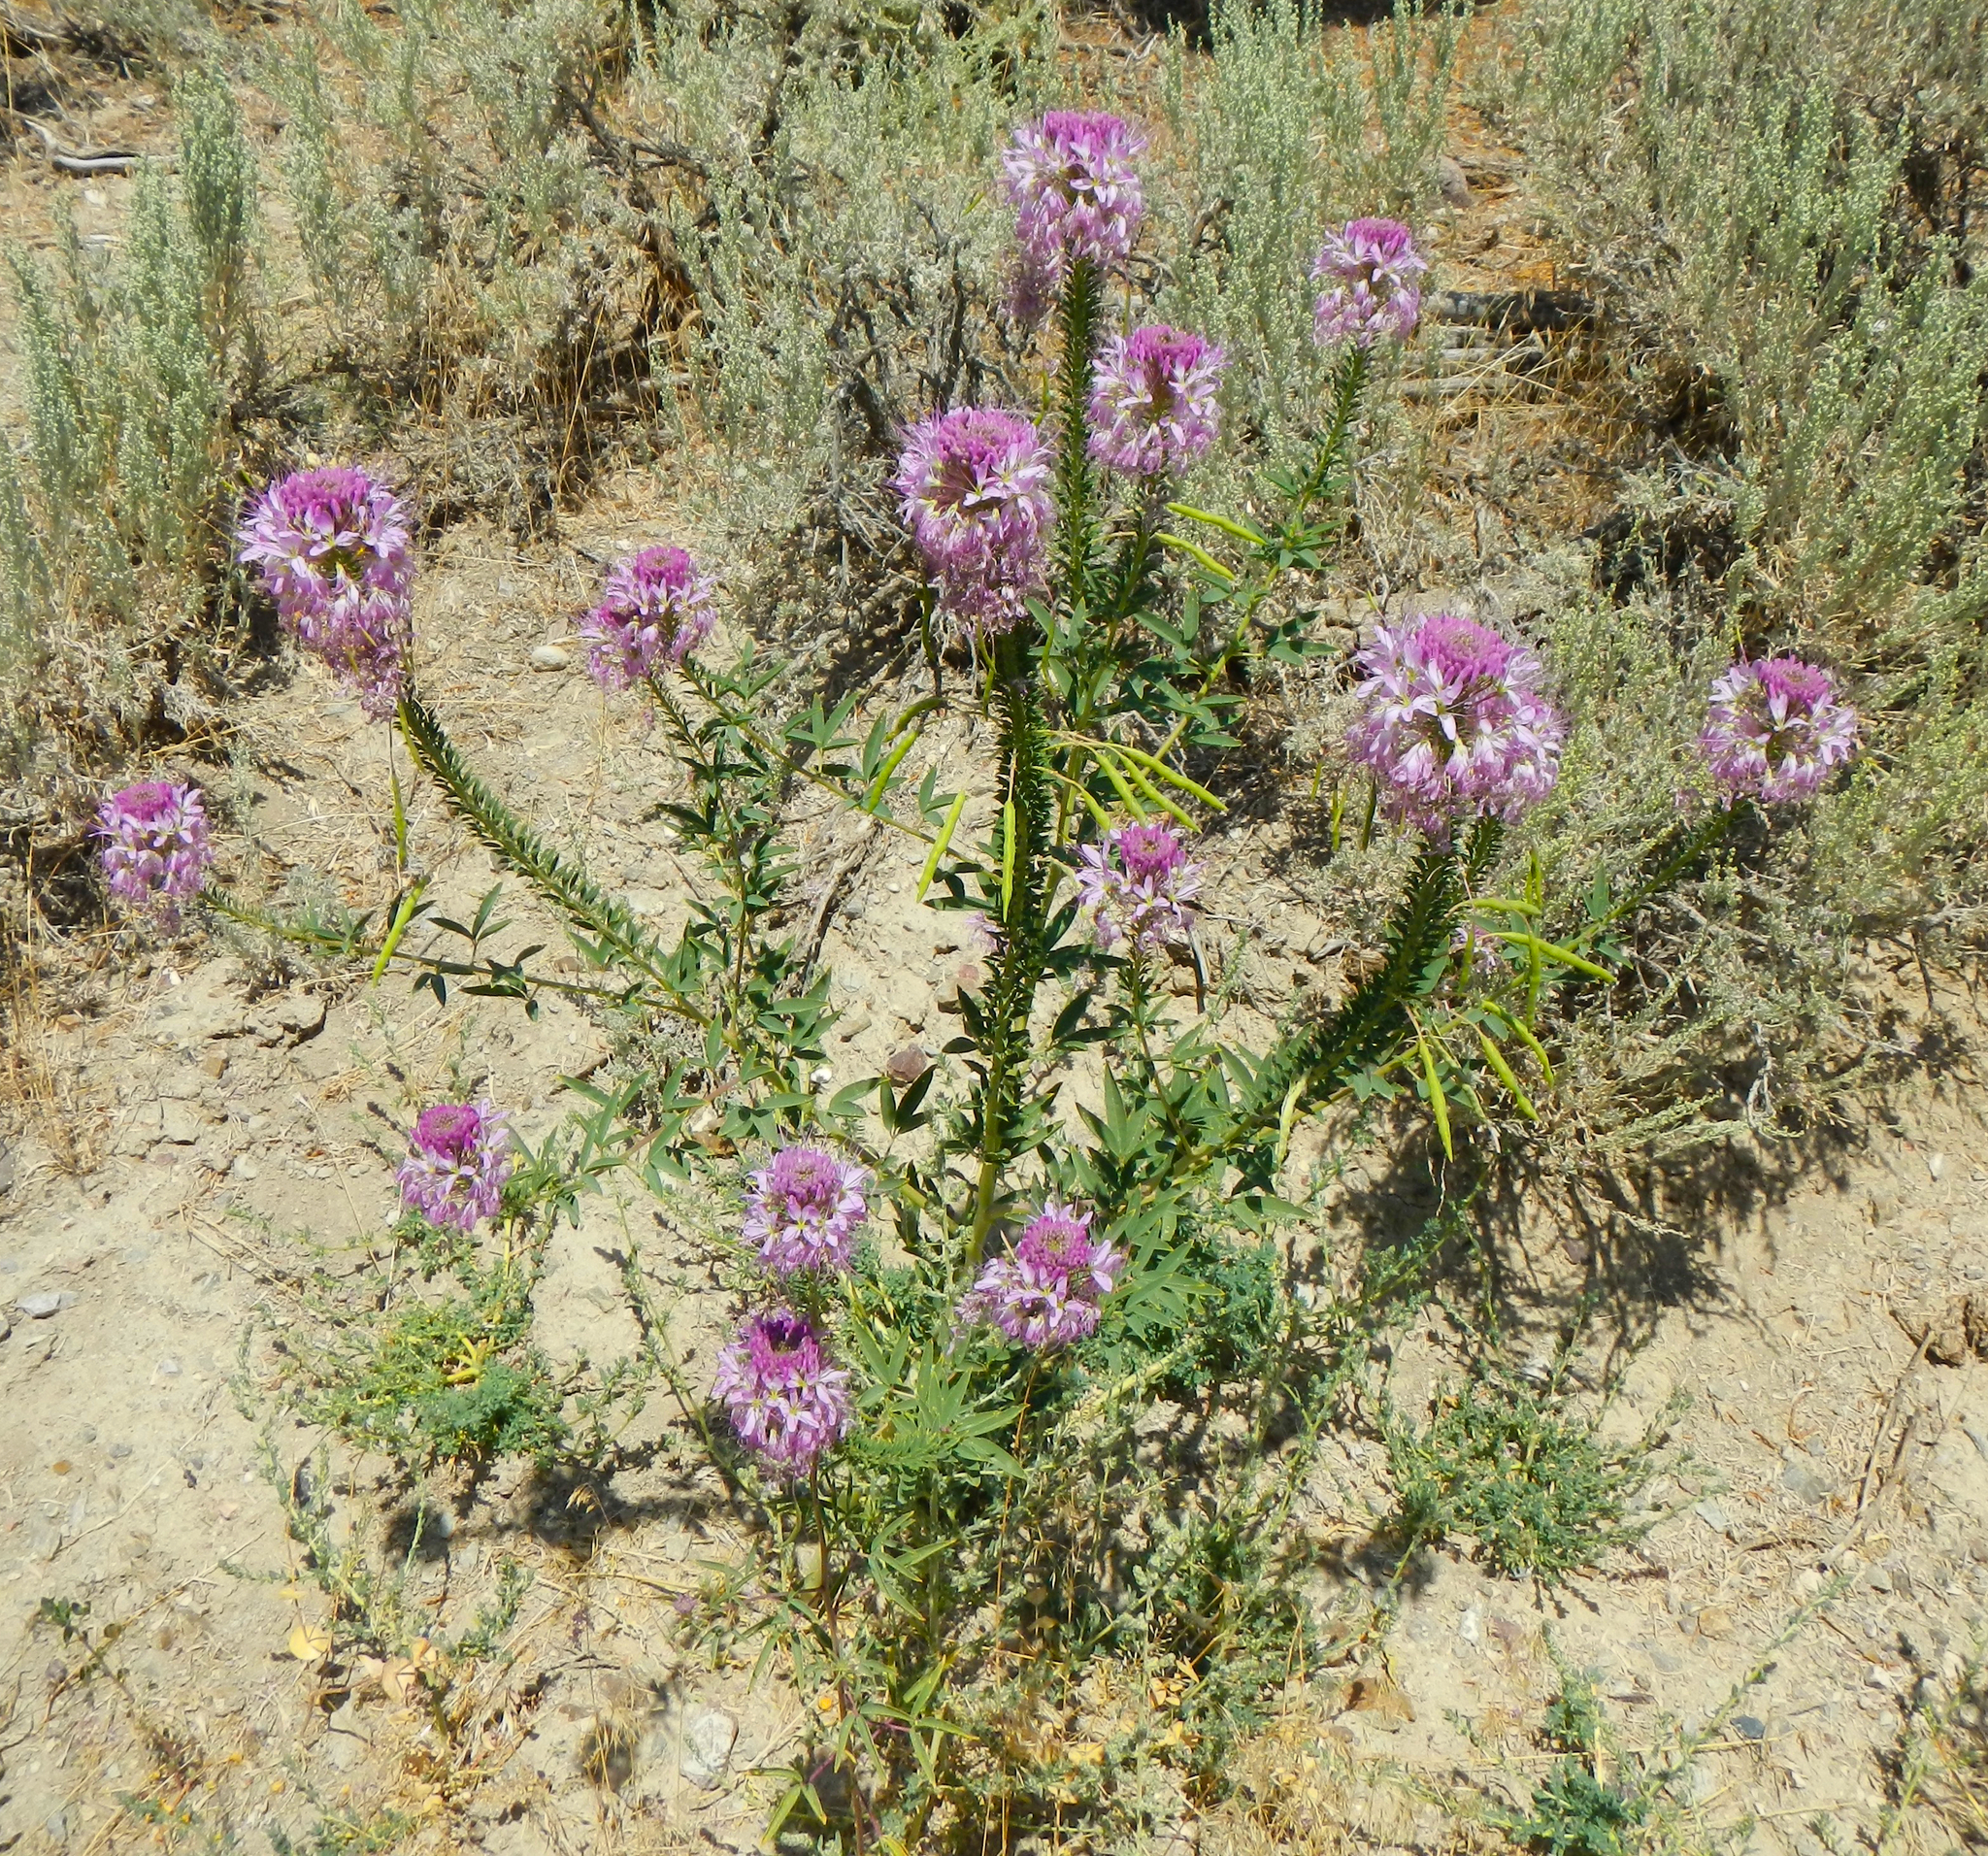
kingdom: Plantae
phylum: Tracheophyta
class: Magnoliopsida
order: Brassicales
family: Cleomaceae
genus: Cleomella
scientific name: Cleomella serrulata
